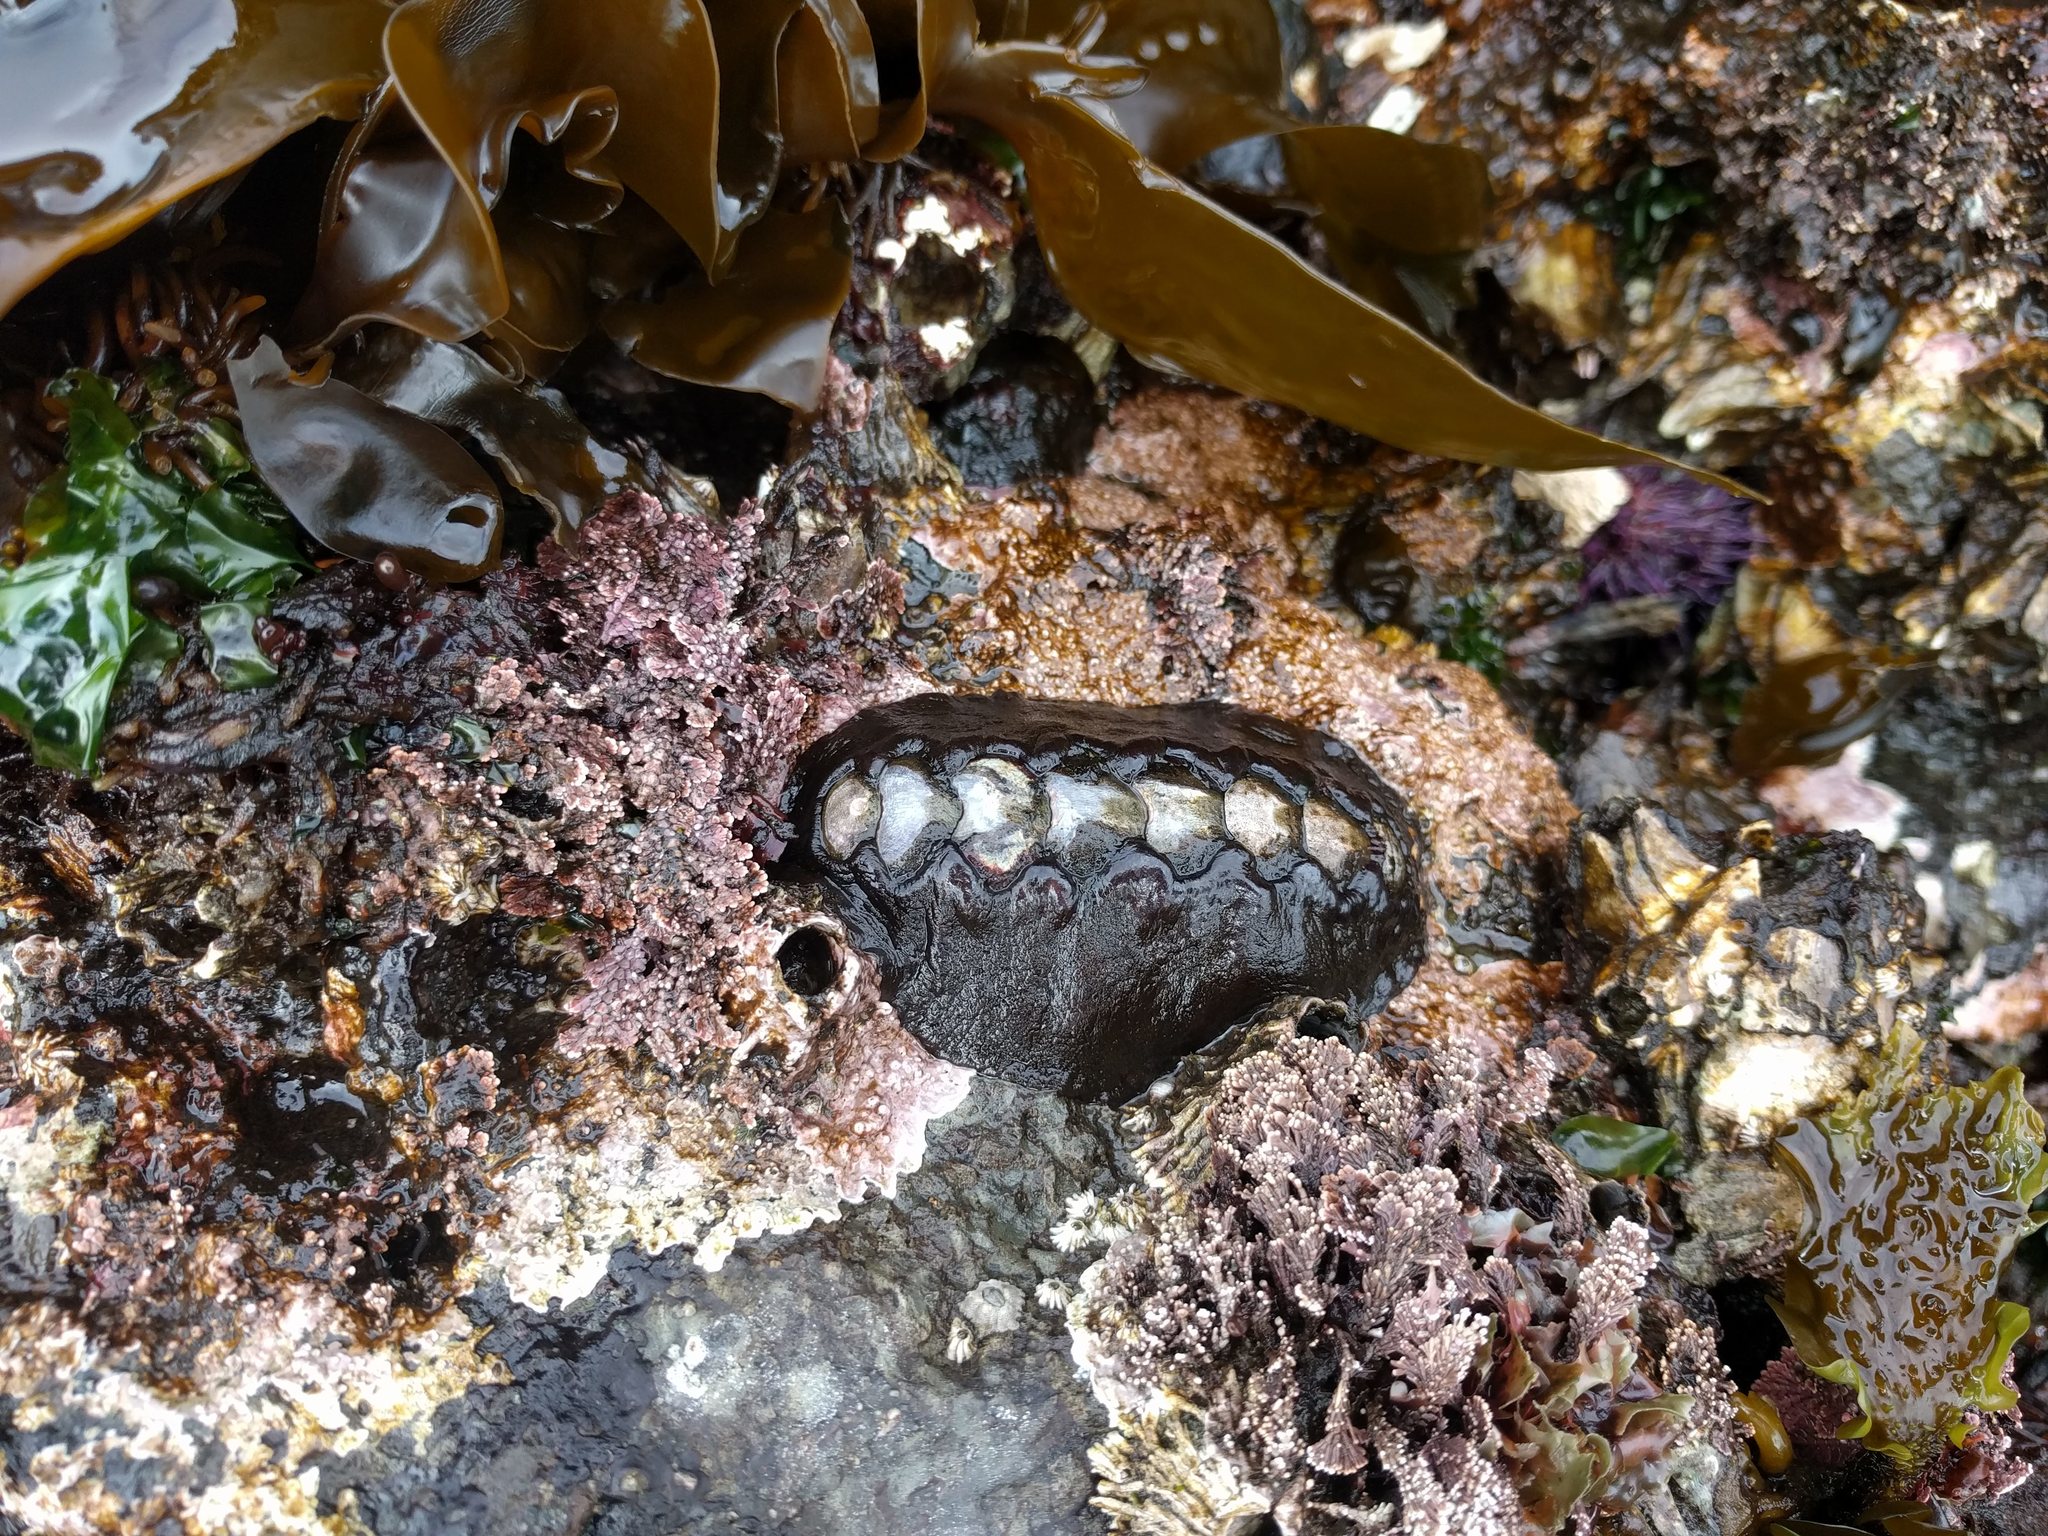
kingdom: Animalia
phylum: Mollusca
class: Polyplacophora
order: Chitonida
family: Mopaliidae
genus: Katharina
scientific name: Katharina tunicata
